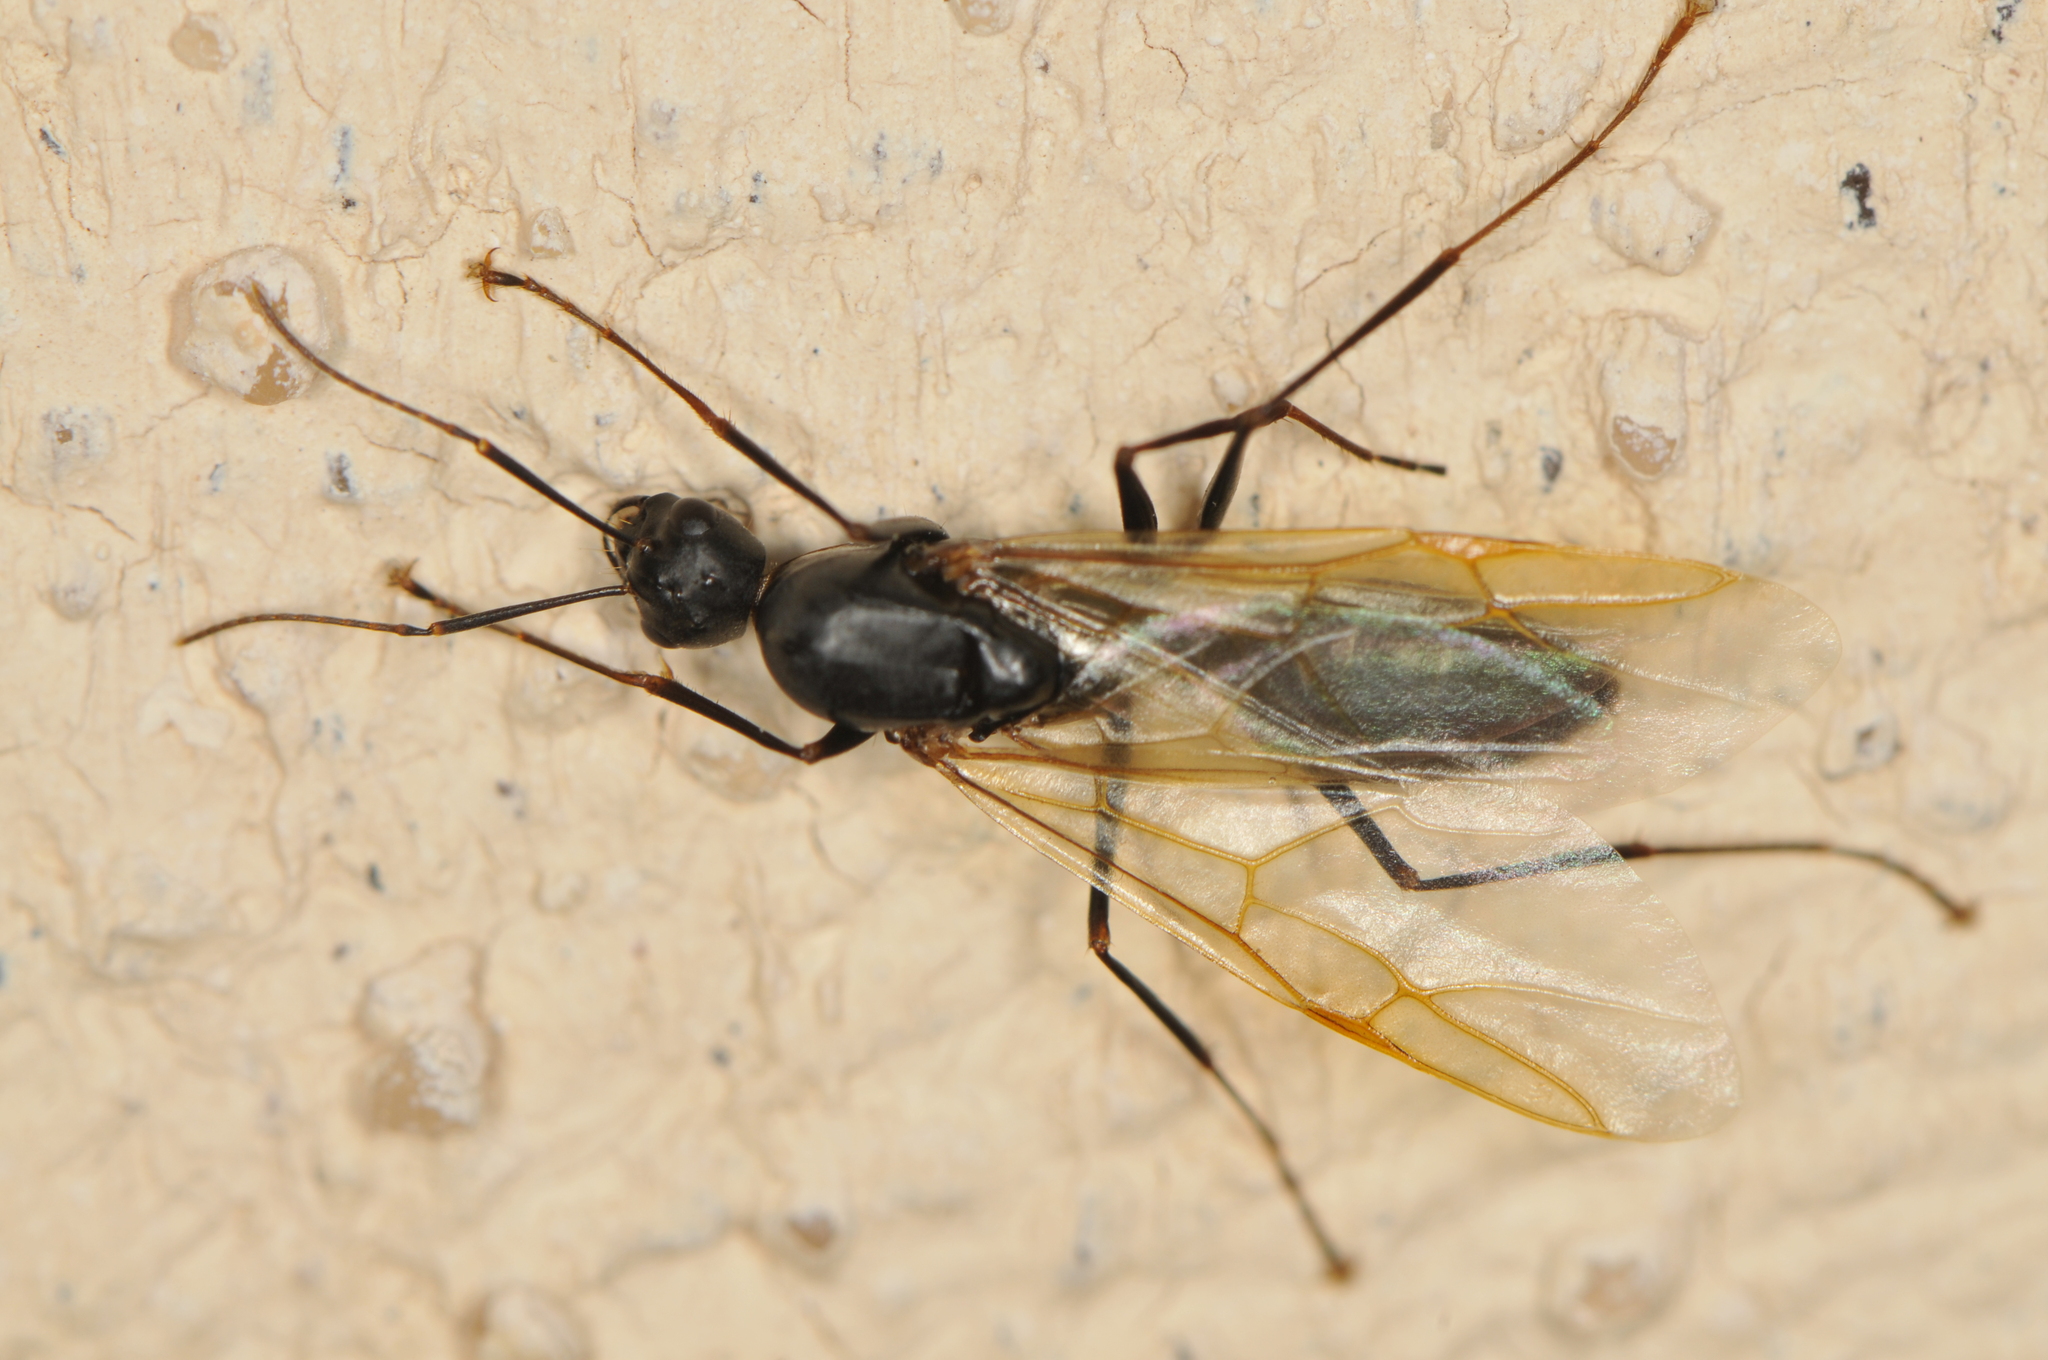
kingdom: Animalia
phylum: Arthropoda
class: Insecta
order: Hymenoptera
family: Formicidae
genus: Camponotus
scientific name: Camponotus
